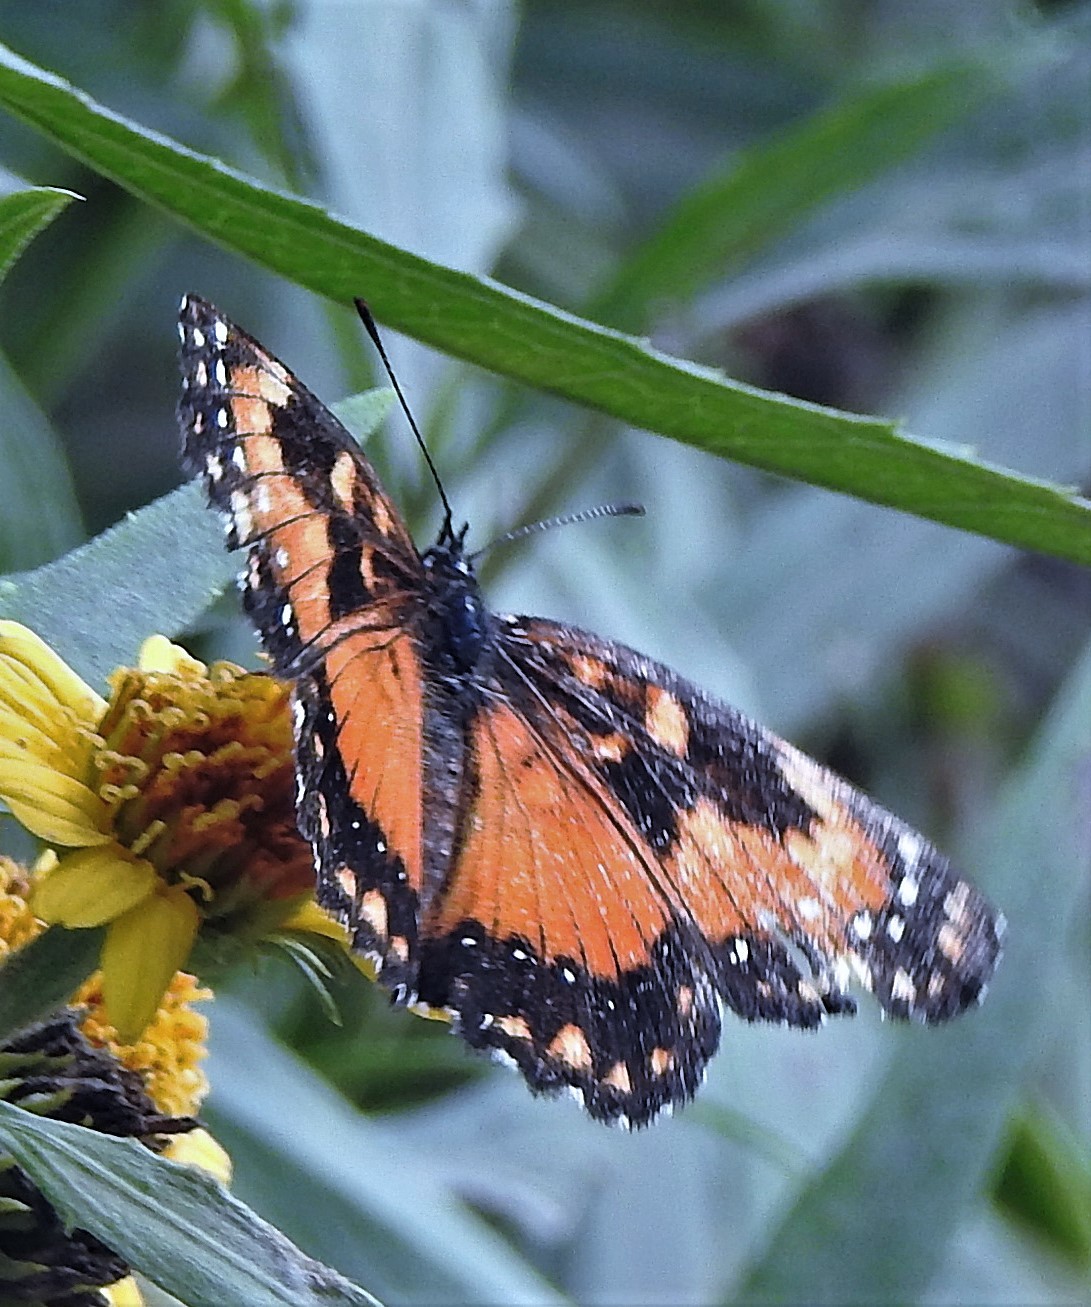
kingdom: Animalia
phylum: Arthropoda
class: Insecta
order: Lepidoptera
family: Nymphalidae
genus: Chlosyne
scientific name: Chlosyne lacinia
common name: Bordered patch
